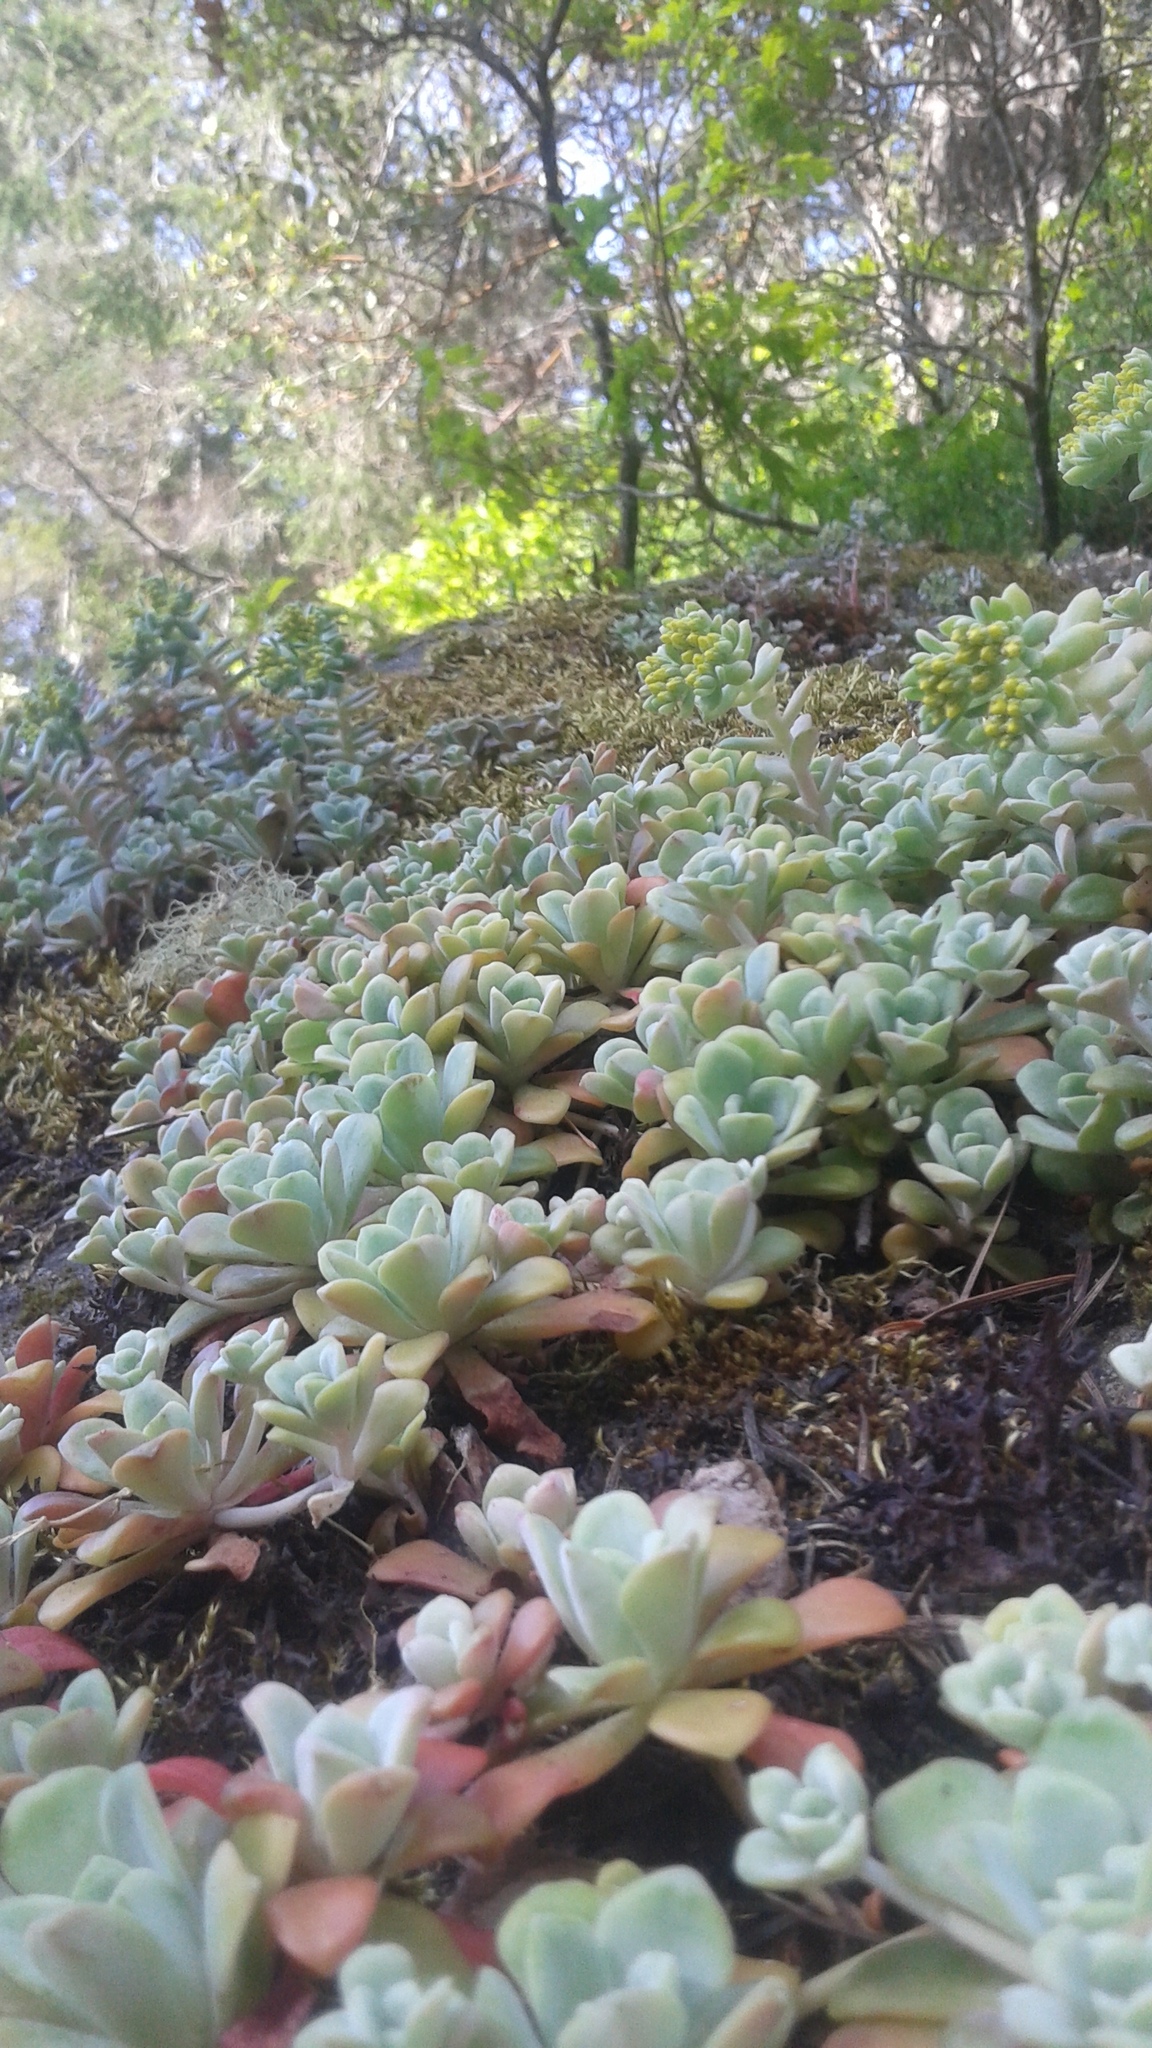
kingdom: Plantae
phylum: Tracheophyta
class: Magnoliopsida
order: Saxifragales
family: Crassulaceae
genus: Sedum
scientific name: Sedum spathulifolium
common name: Colorado stonecrop
